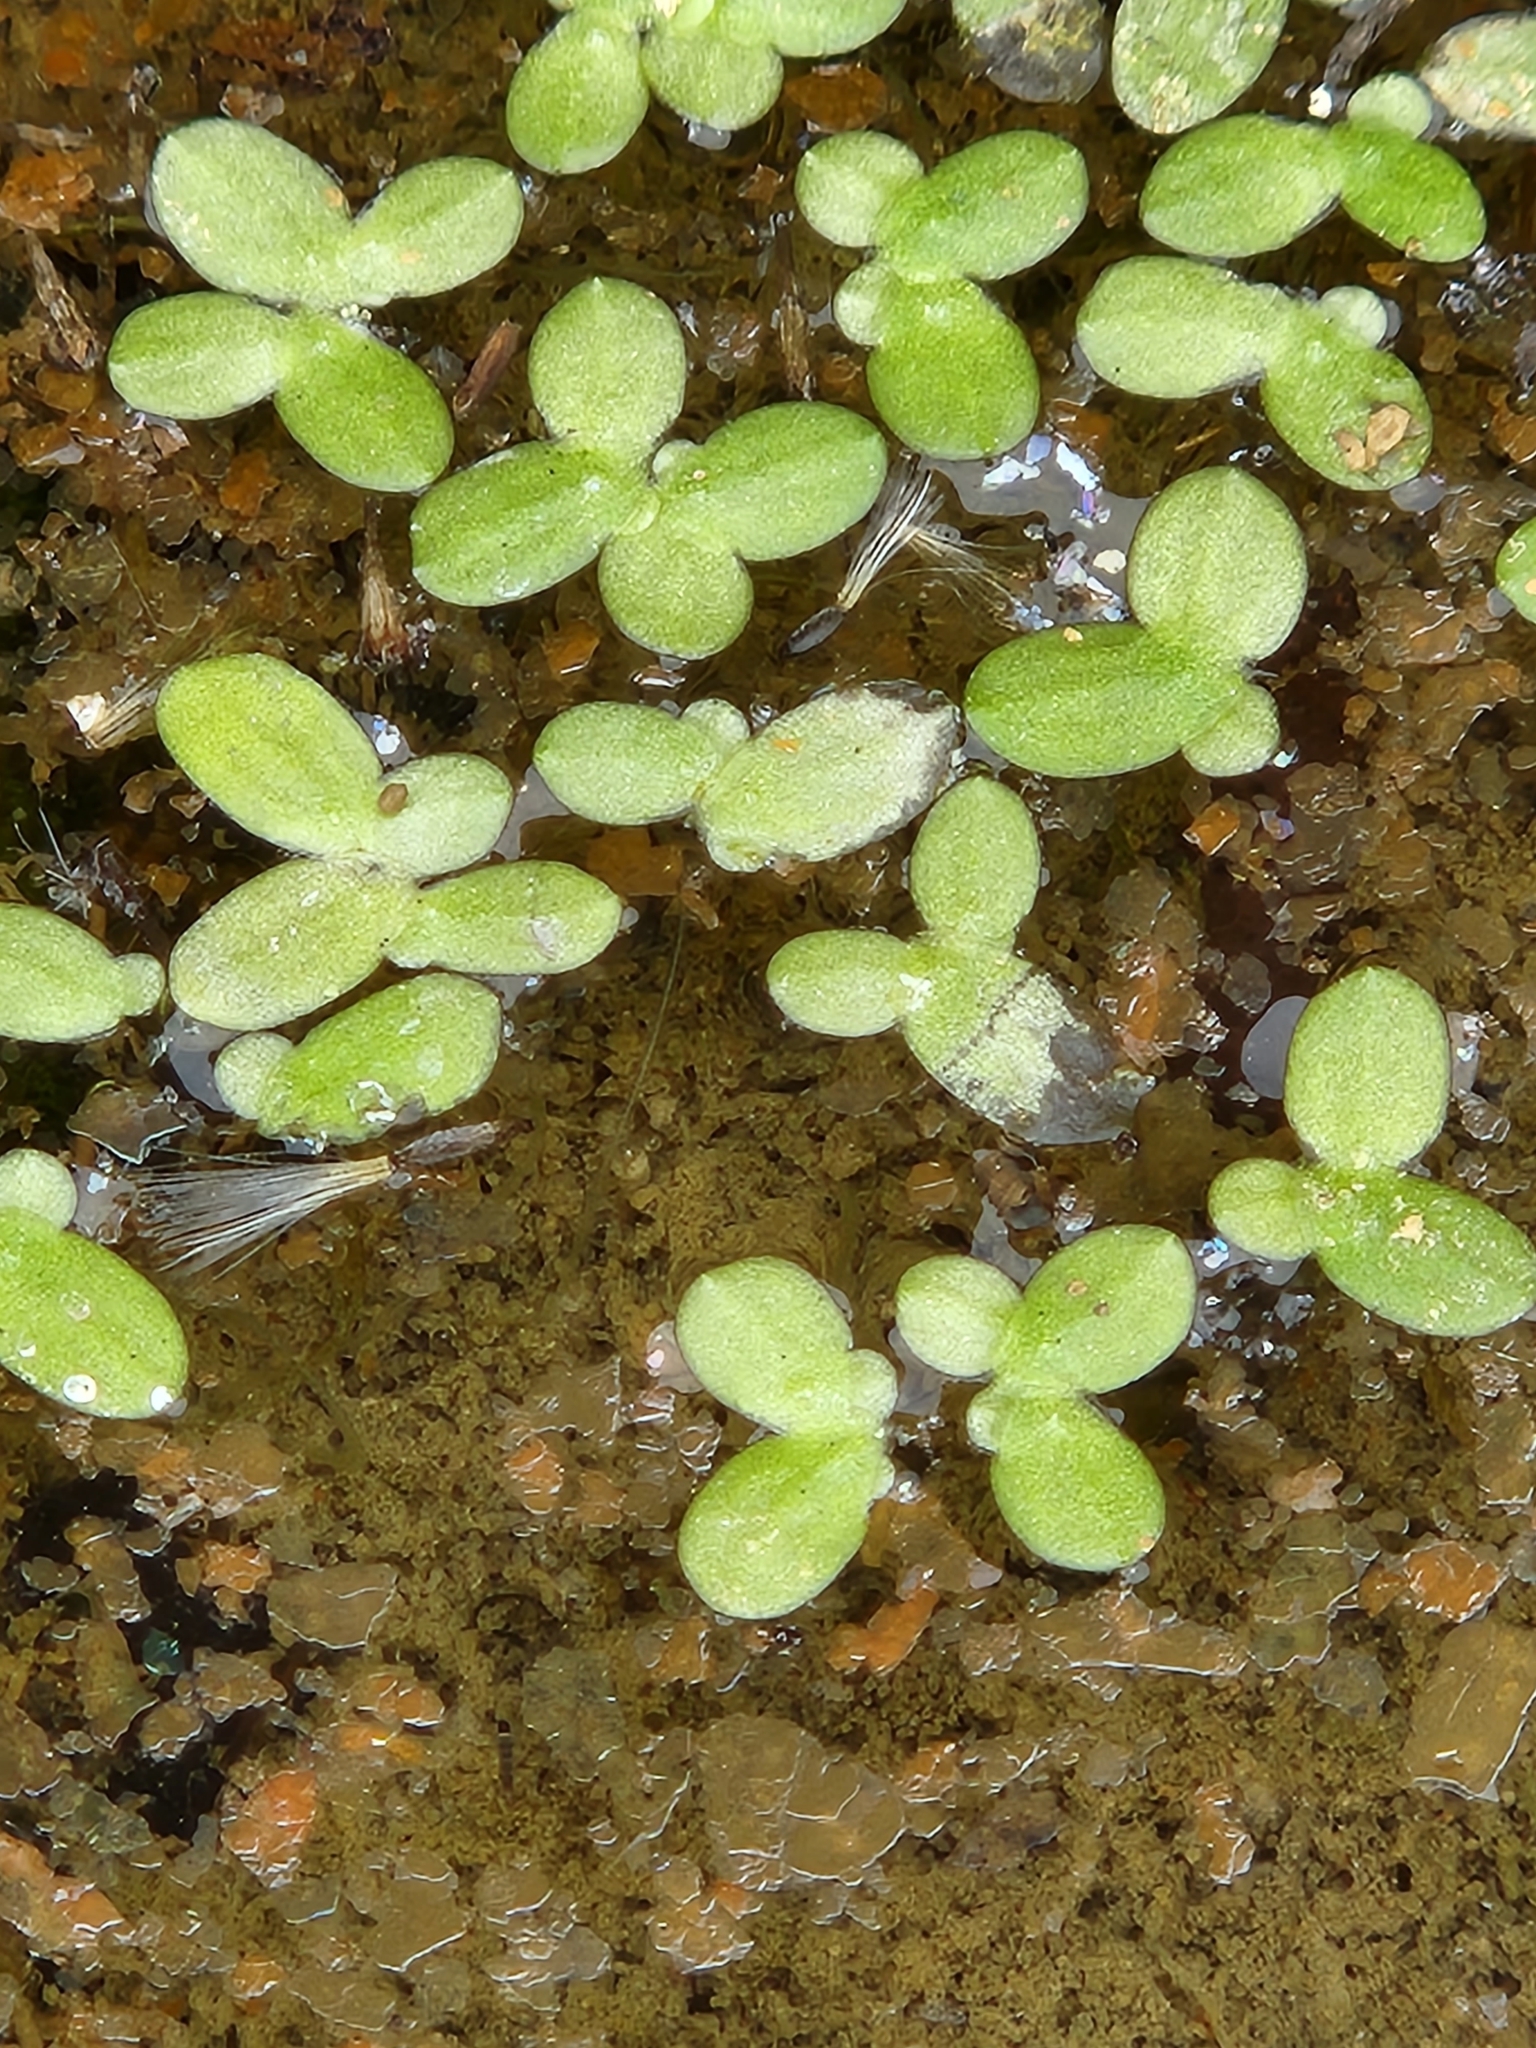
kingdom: Plantae
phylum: Tracheophyta
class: Liliopsida
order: Alismatales
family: Araceae
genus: Lemna
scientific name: Lemna minor
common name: Common duckweed
